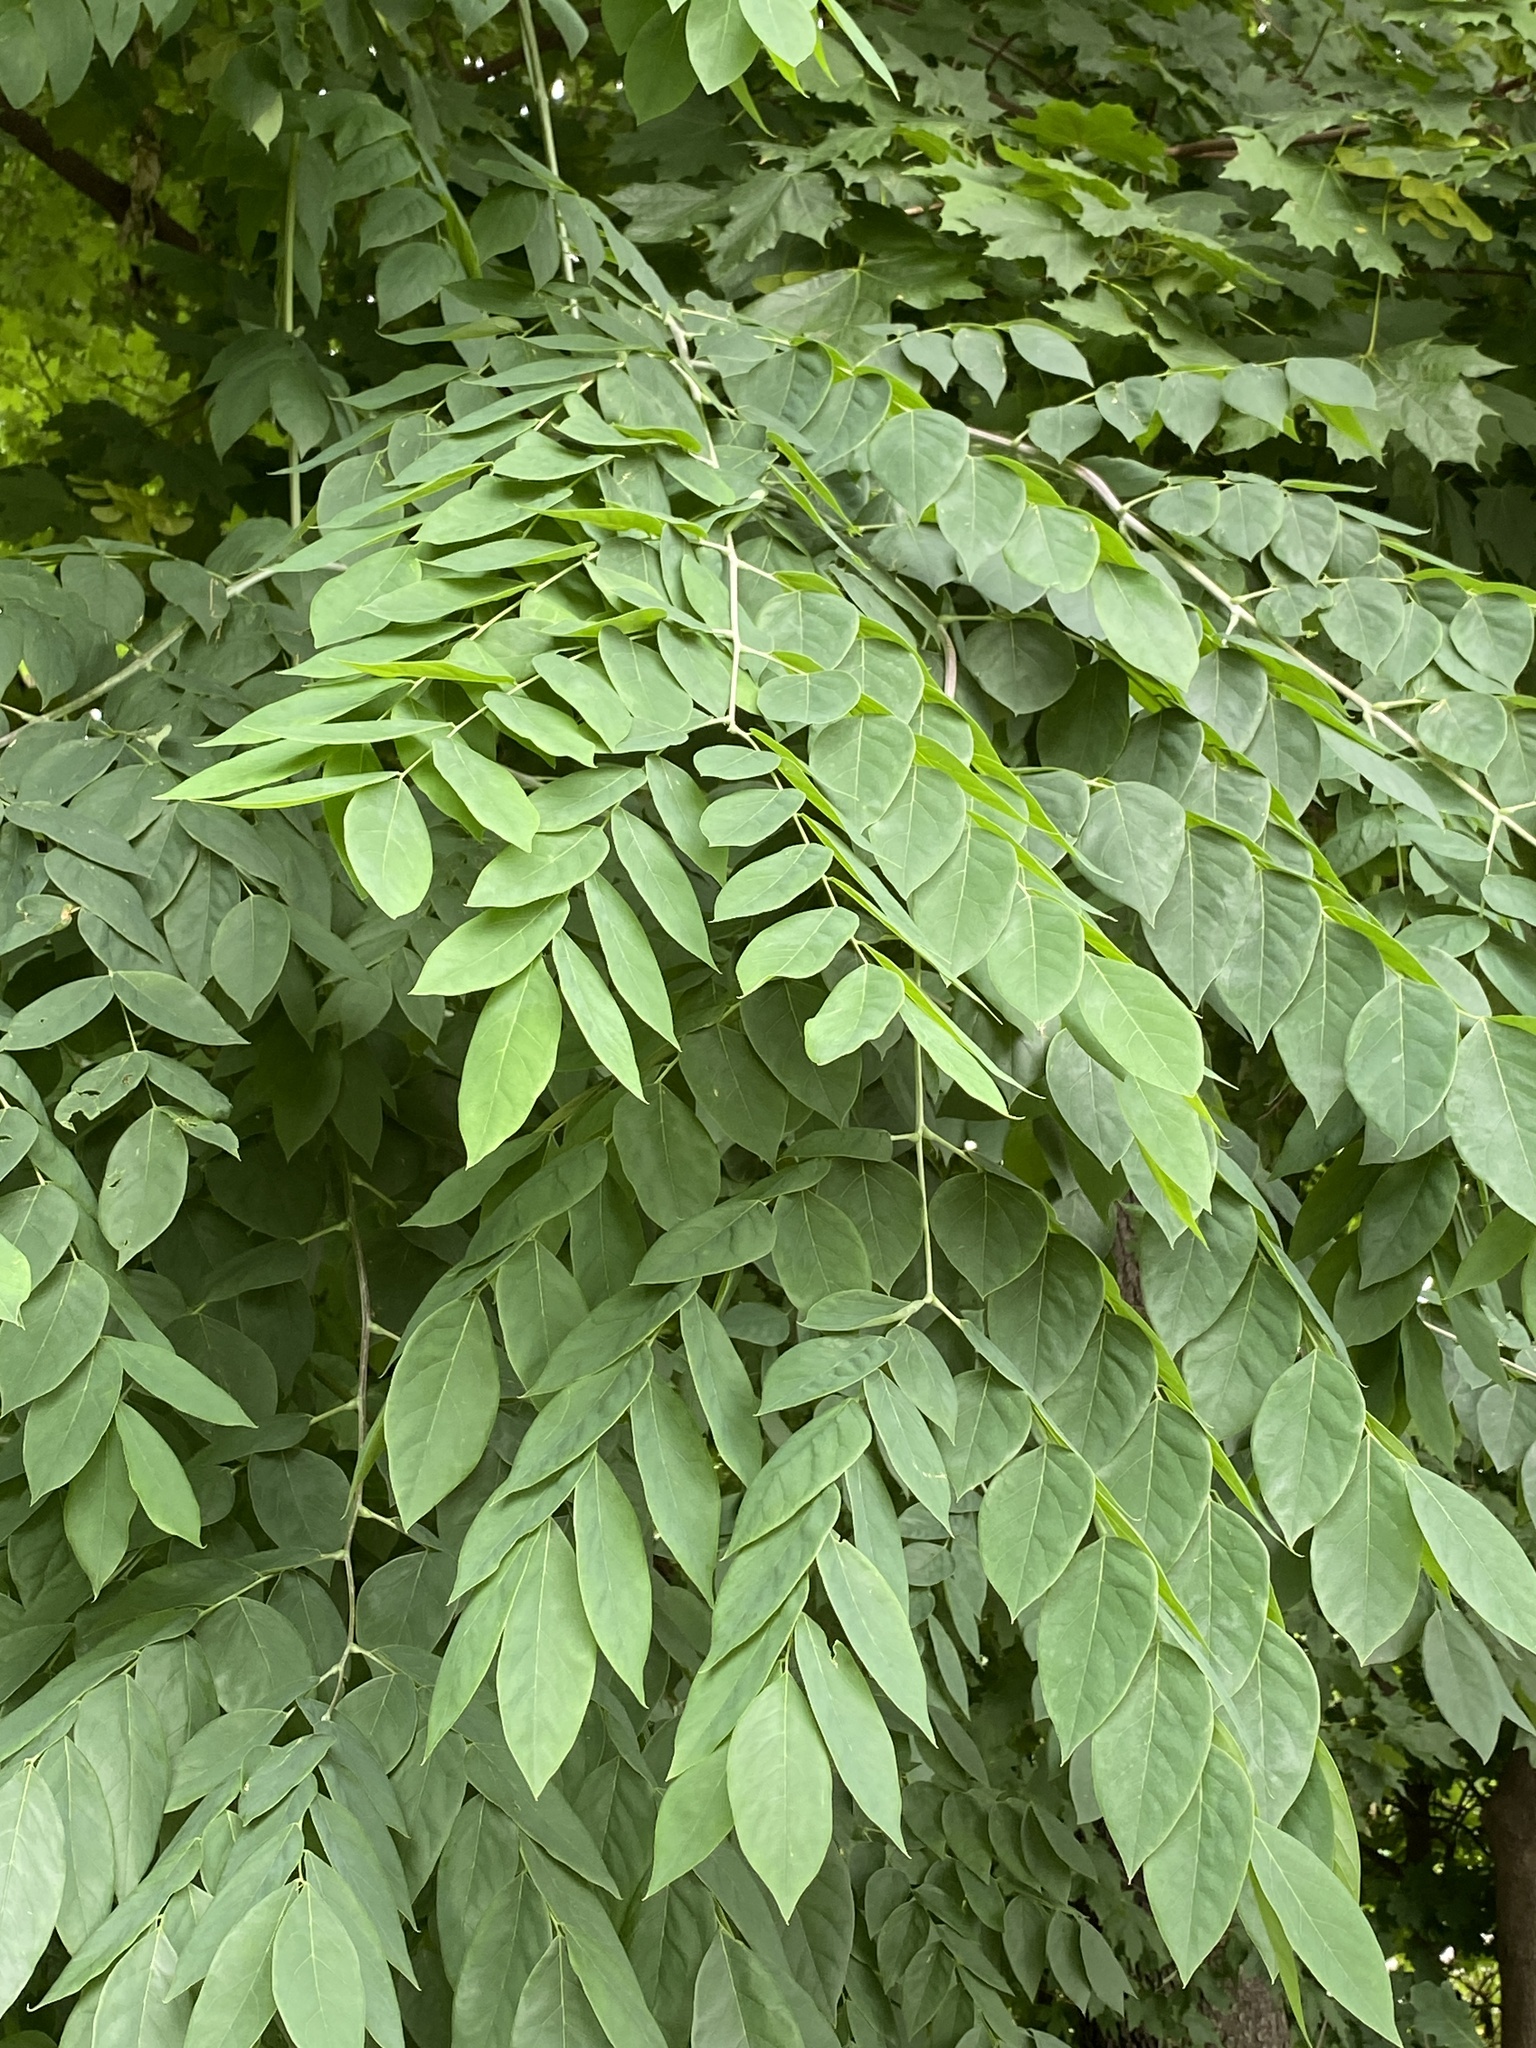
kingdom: Plantae
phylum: Tracheophyta
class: Magnoliopsida
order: Fabales
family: Fabaceae
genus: Gymnocladus
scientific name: Gymnocladus dioicus
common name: Kentucky coffee-tree
